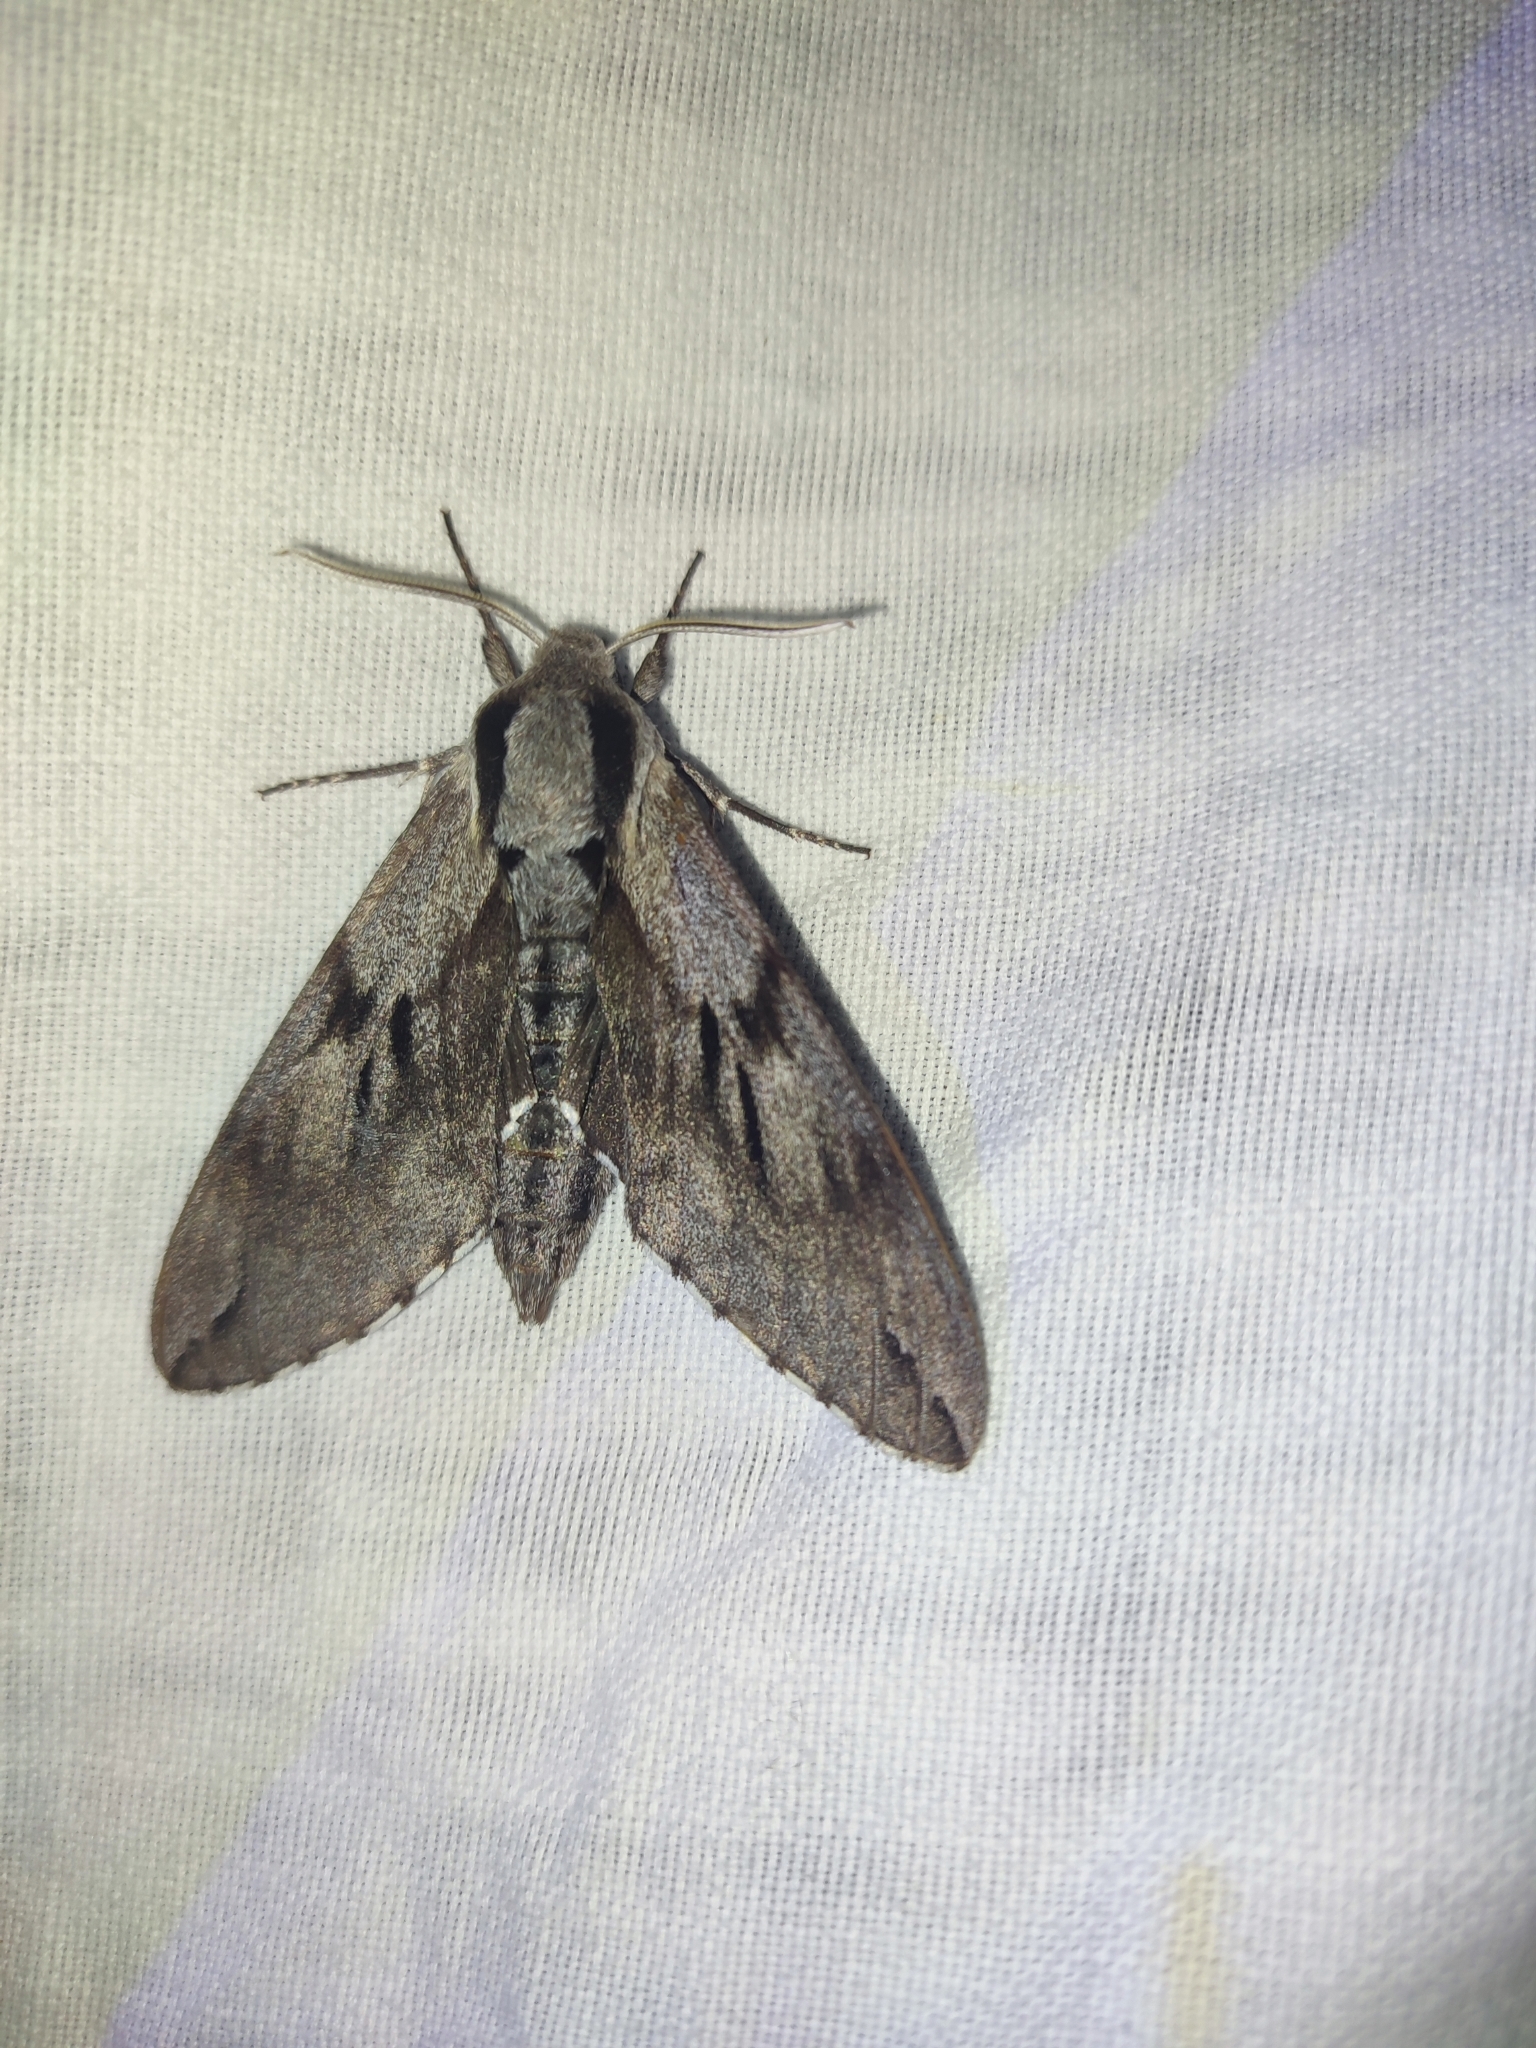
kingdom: Animalia
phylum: Arthropoda
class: Insecta
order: Lepidoptera
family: Sphingidae
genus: Sphinx
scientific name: Sphinx pinastri
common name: Pine hawk-moth
